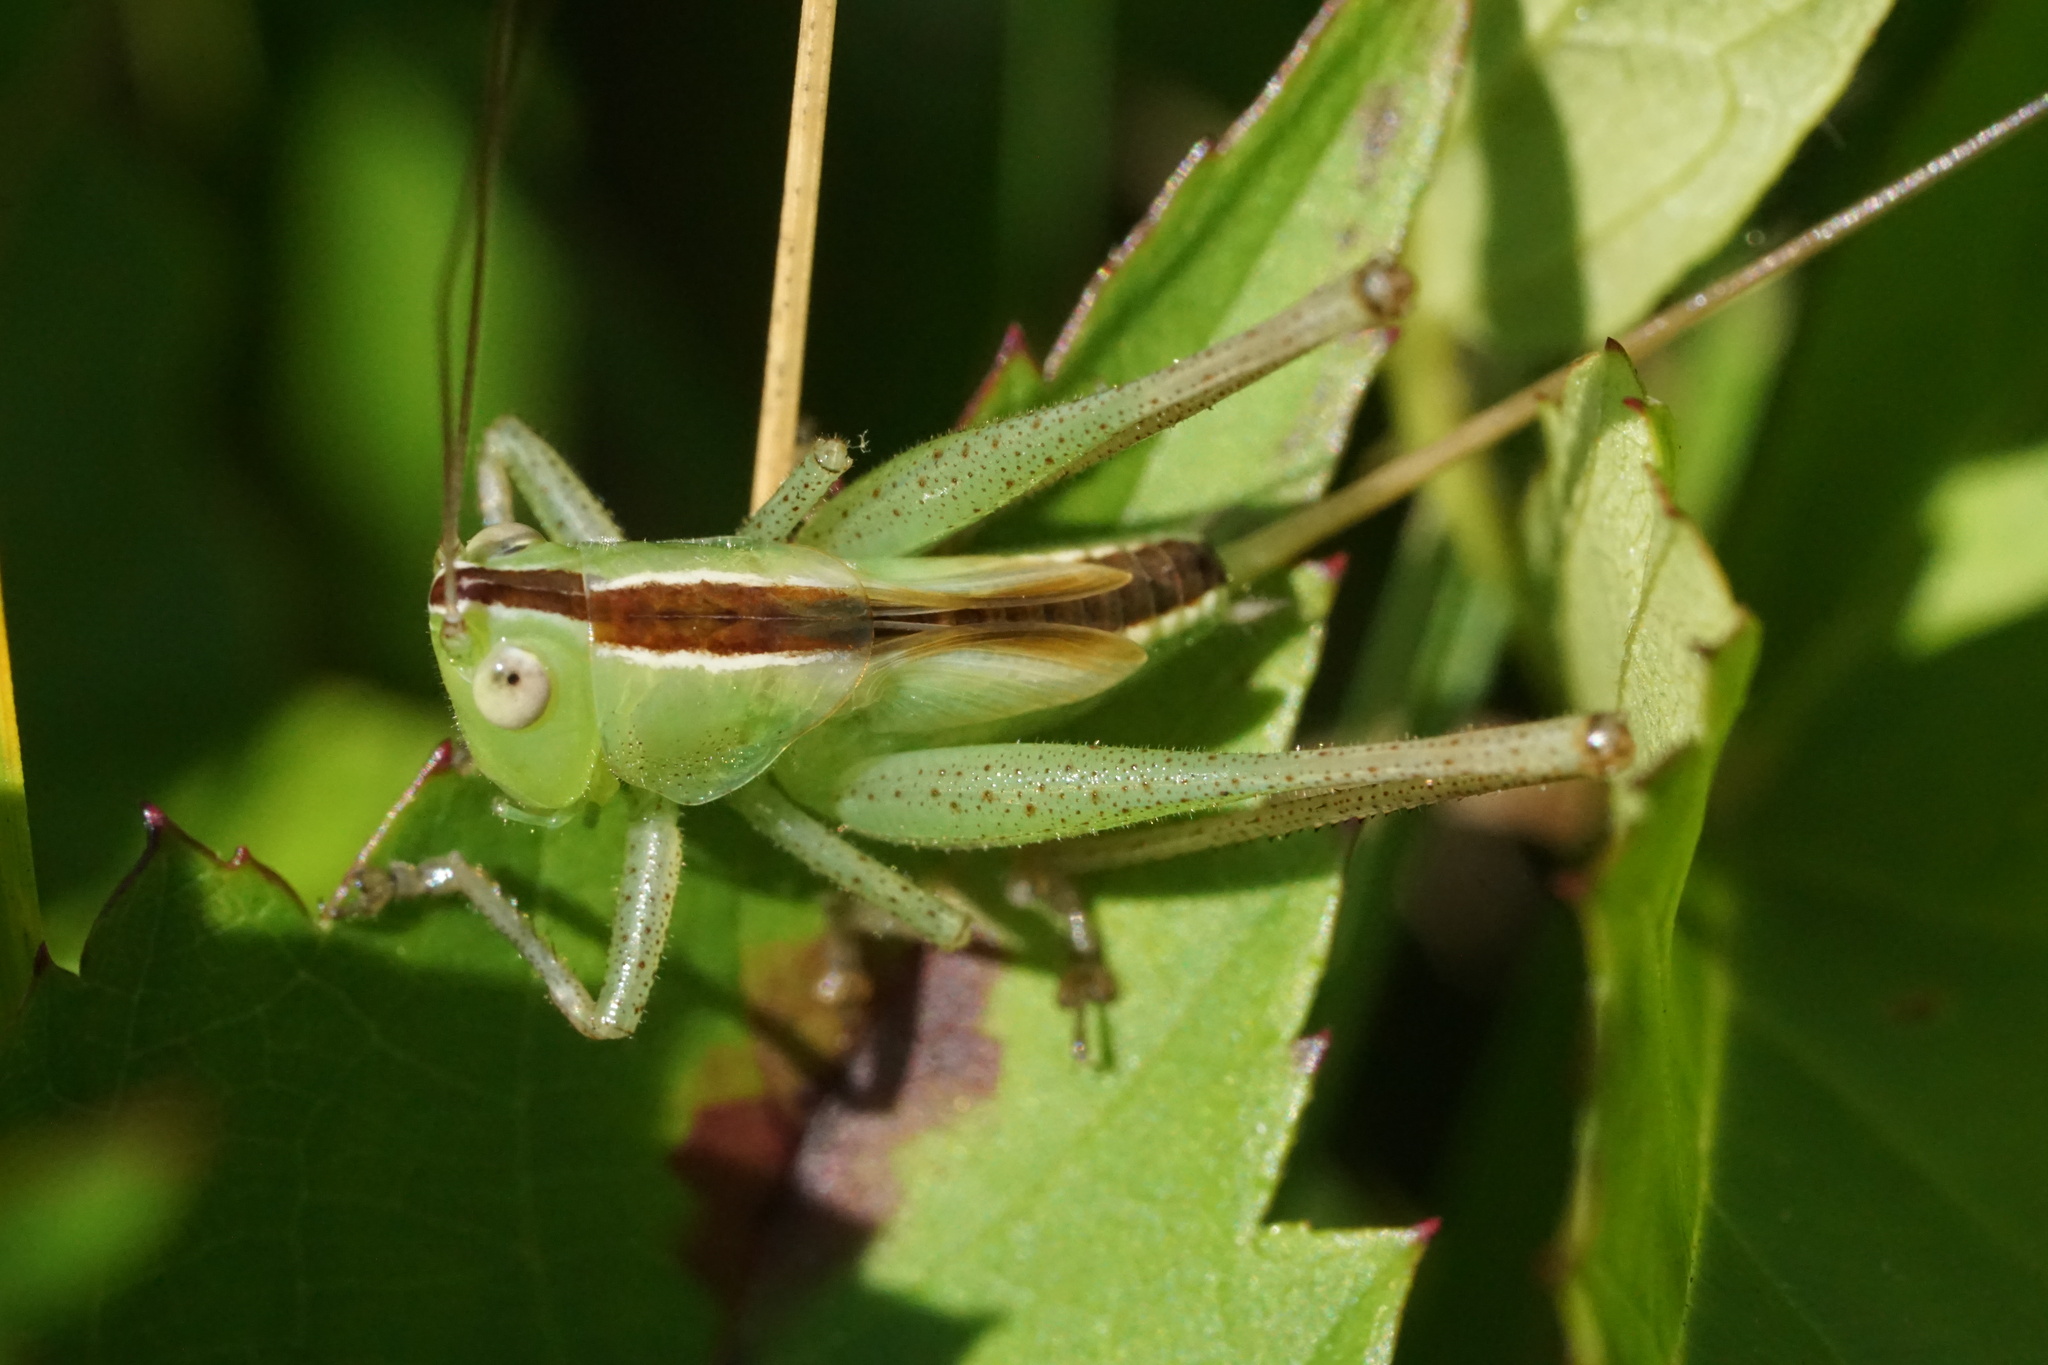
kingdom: Animalia
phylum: Arthropoda
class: Insecta
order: Orthoptera
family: Tettigoniidae
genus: Conocephalus
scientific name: Conocephalus strictus
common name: Straight-lanced katydid
